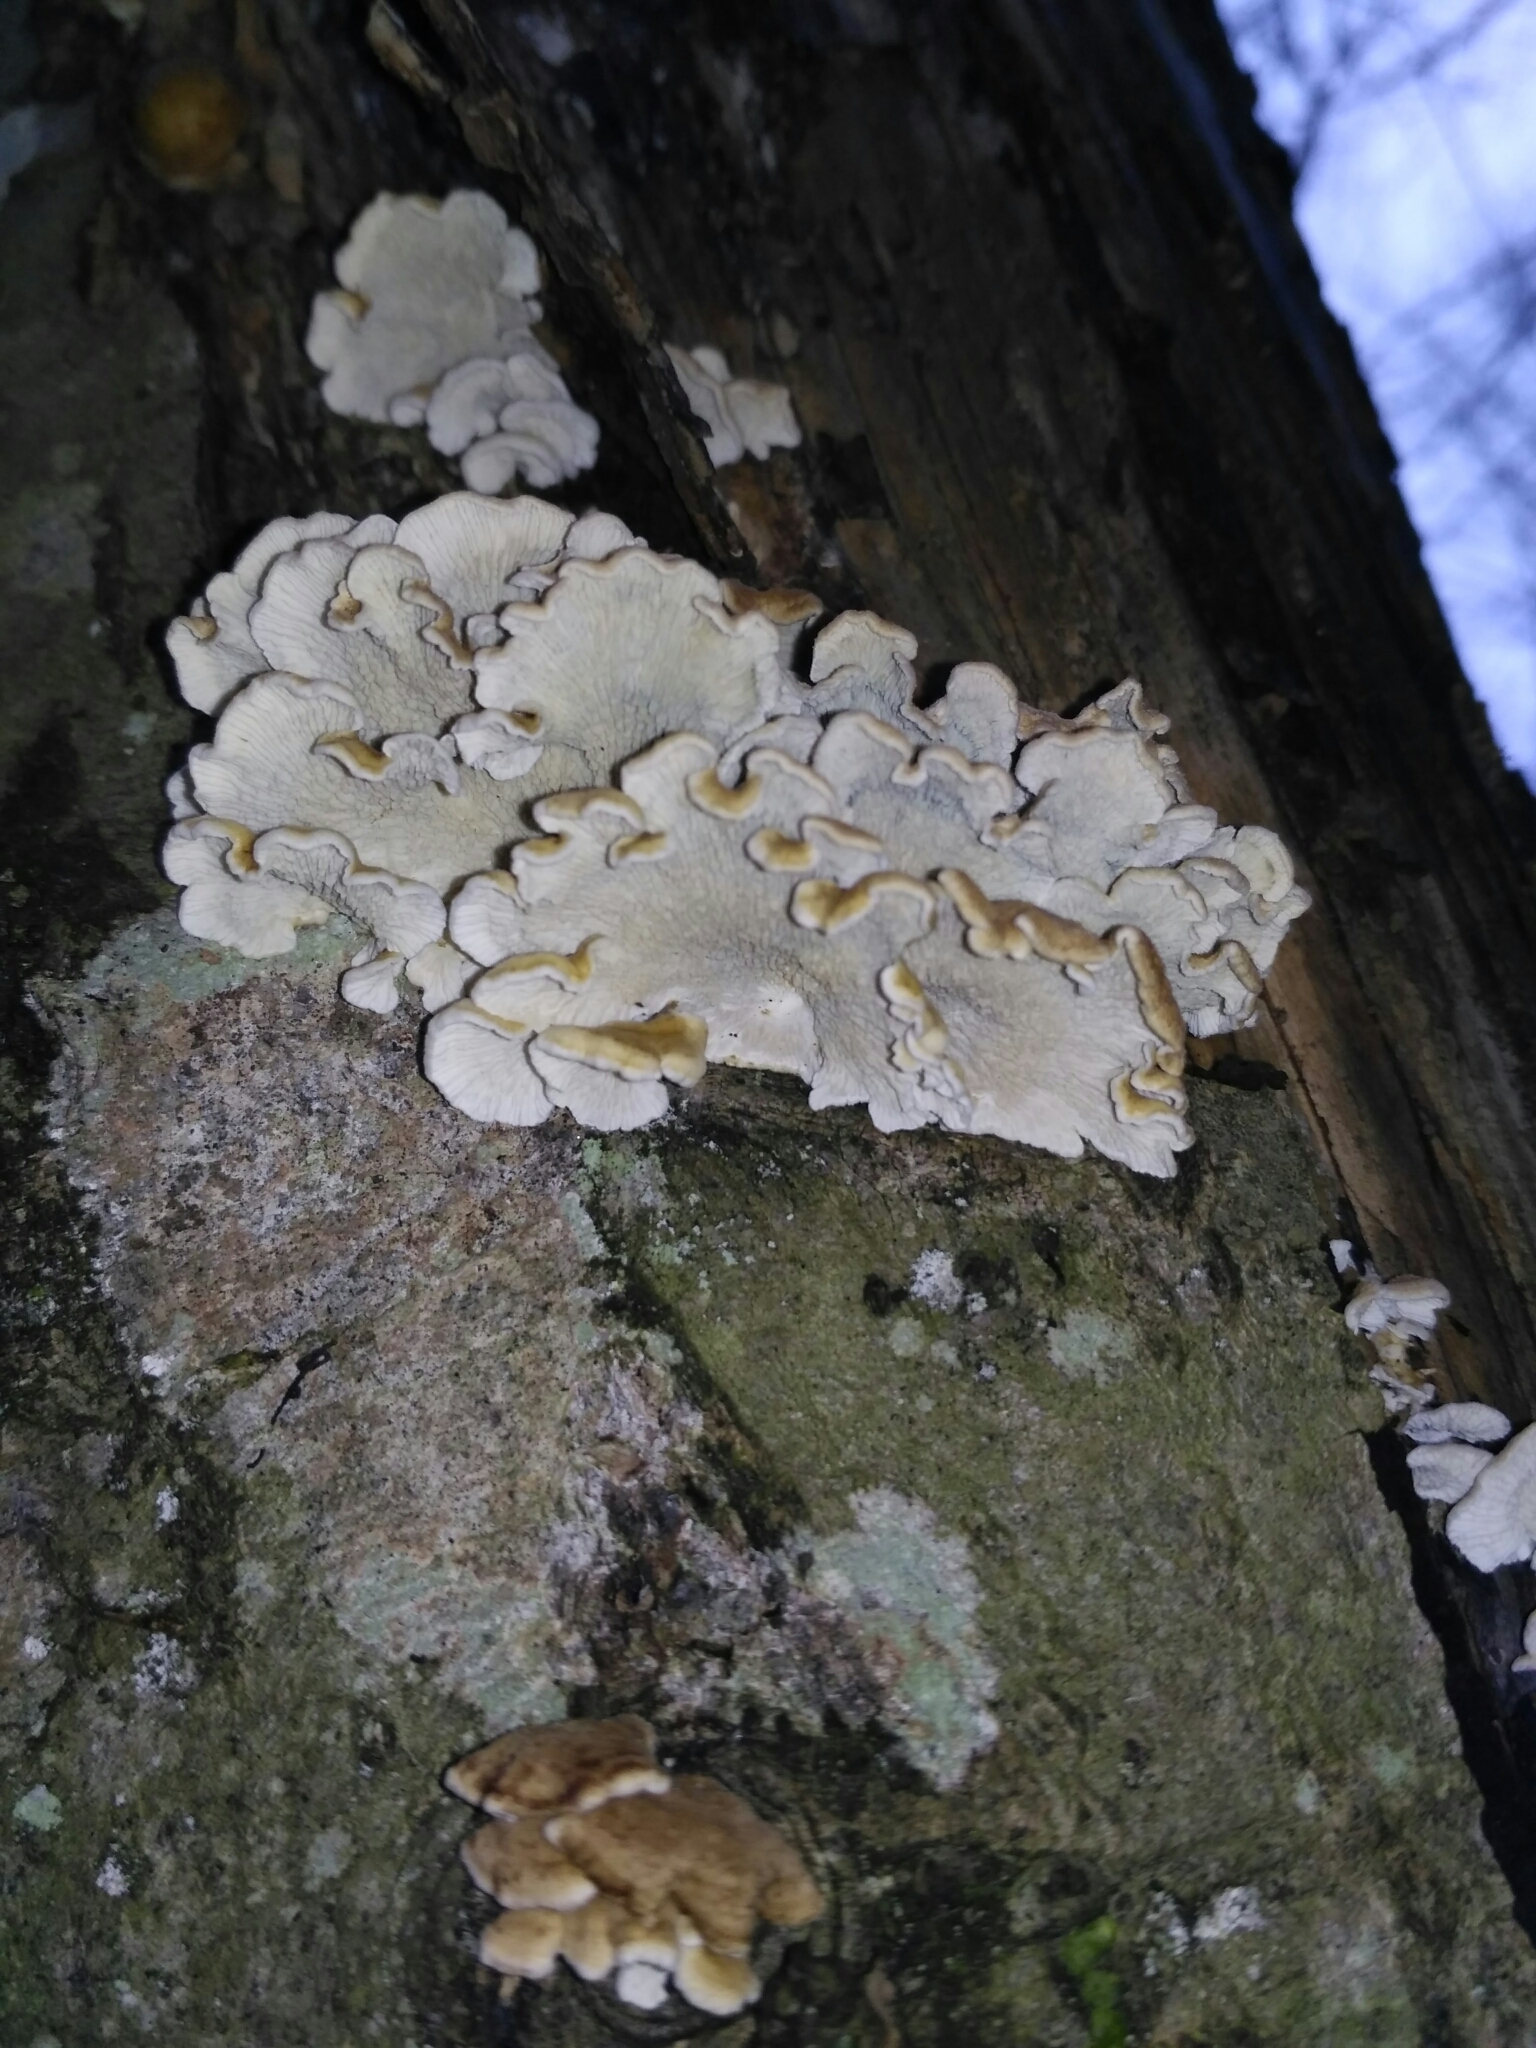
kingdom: Fungi
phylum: Basidiomycota
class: Agaricomycetes
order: Amylocorticiales
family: Amylocorticiaceae
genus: Plicaturopsis
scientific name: Plicaturopsis crispa
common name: Crimped gill
